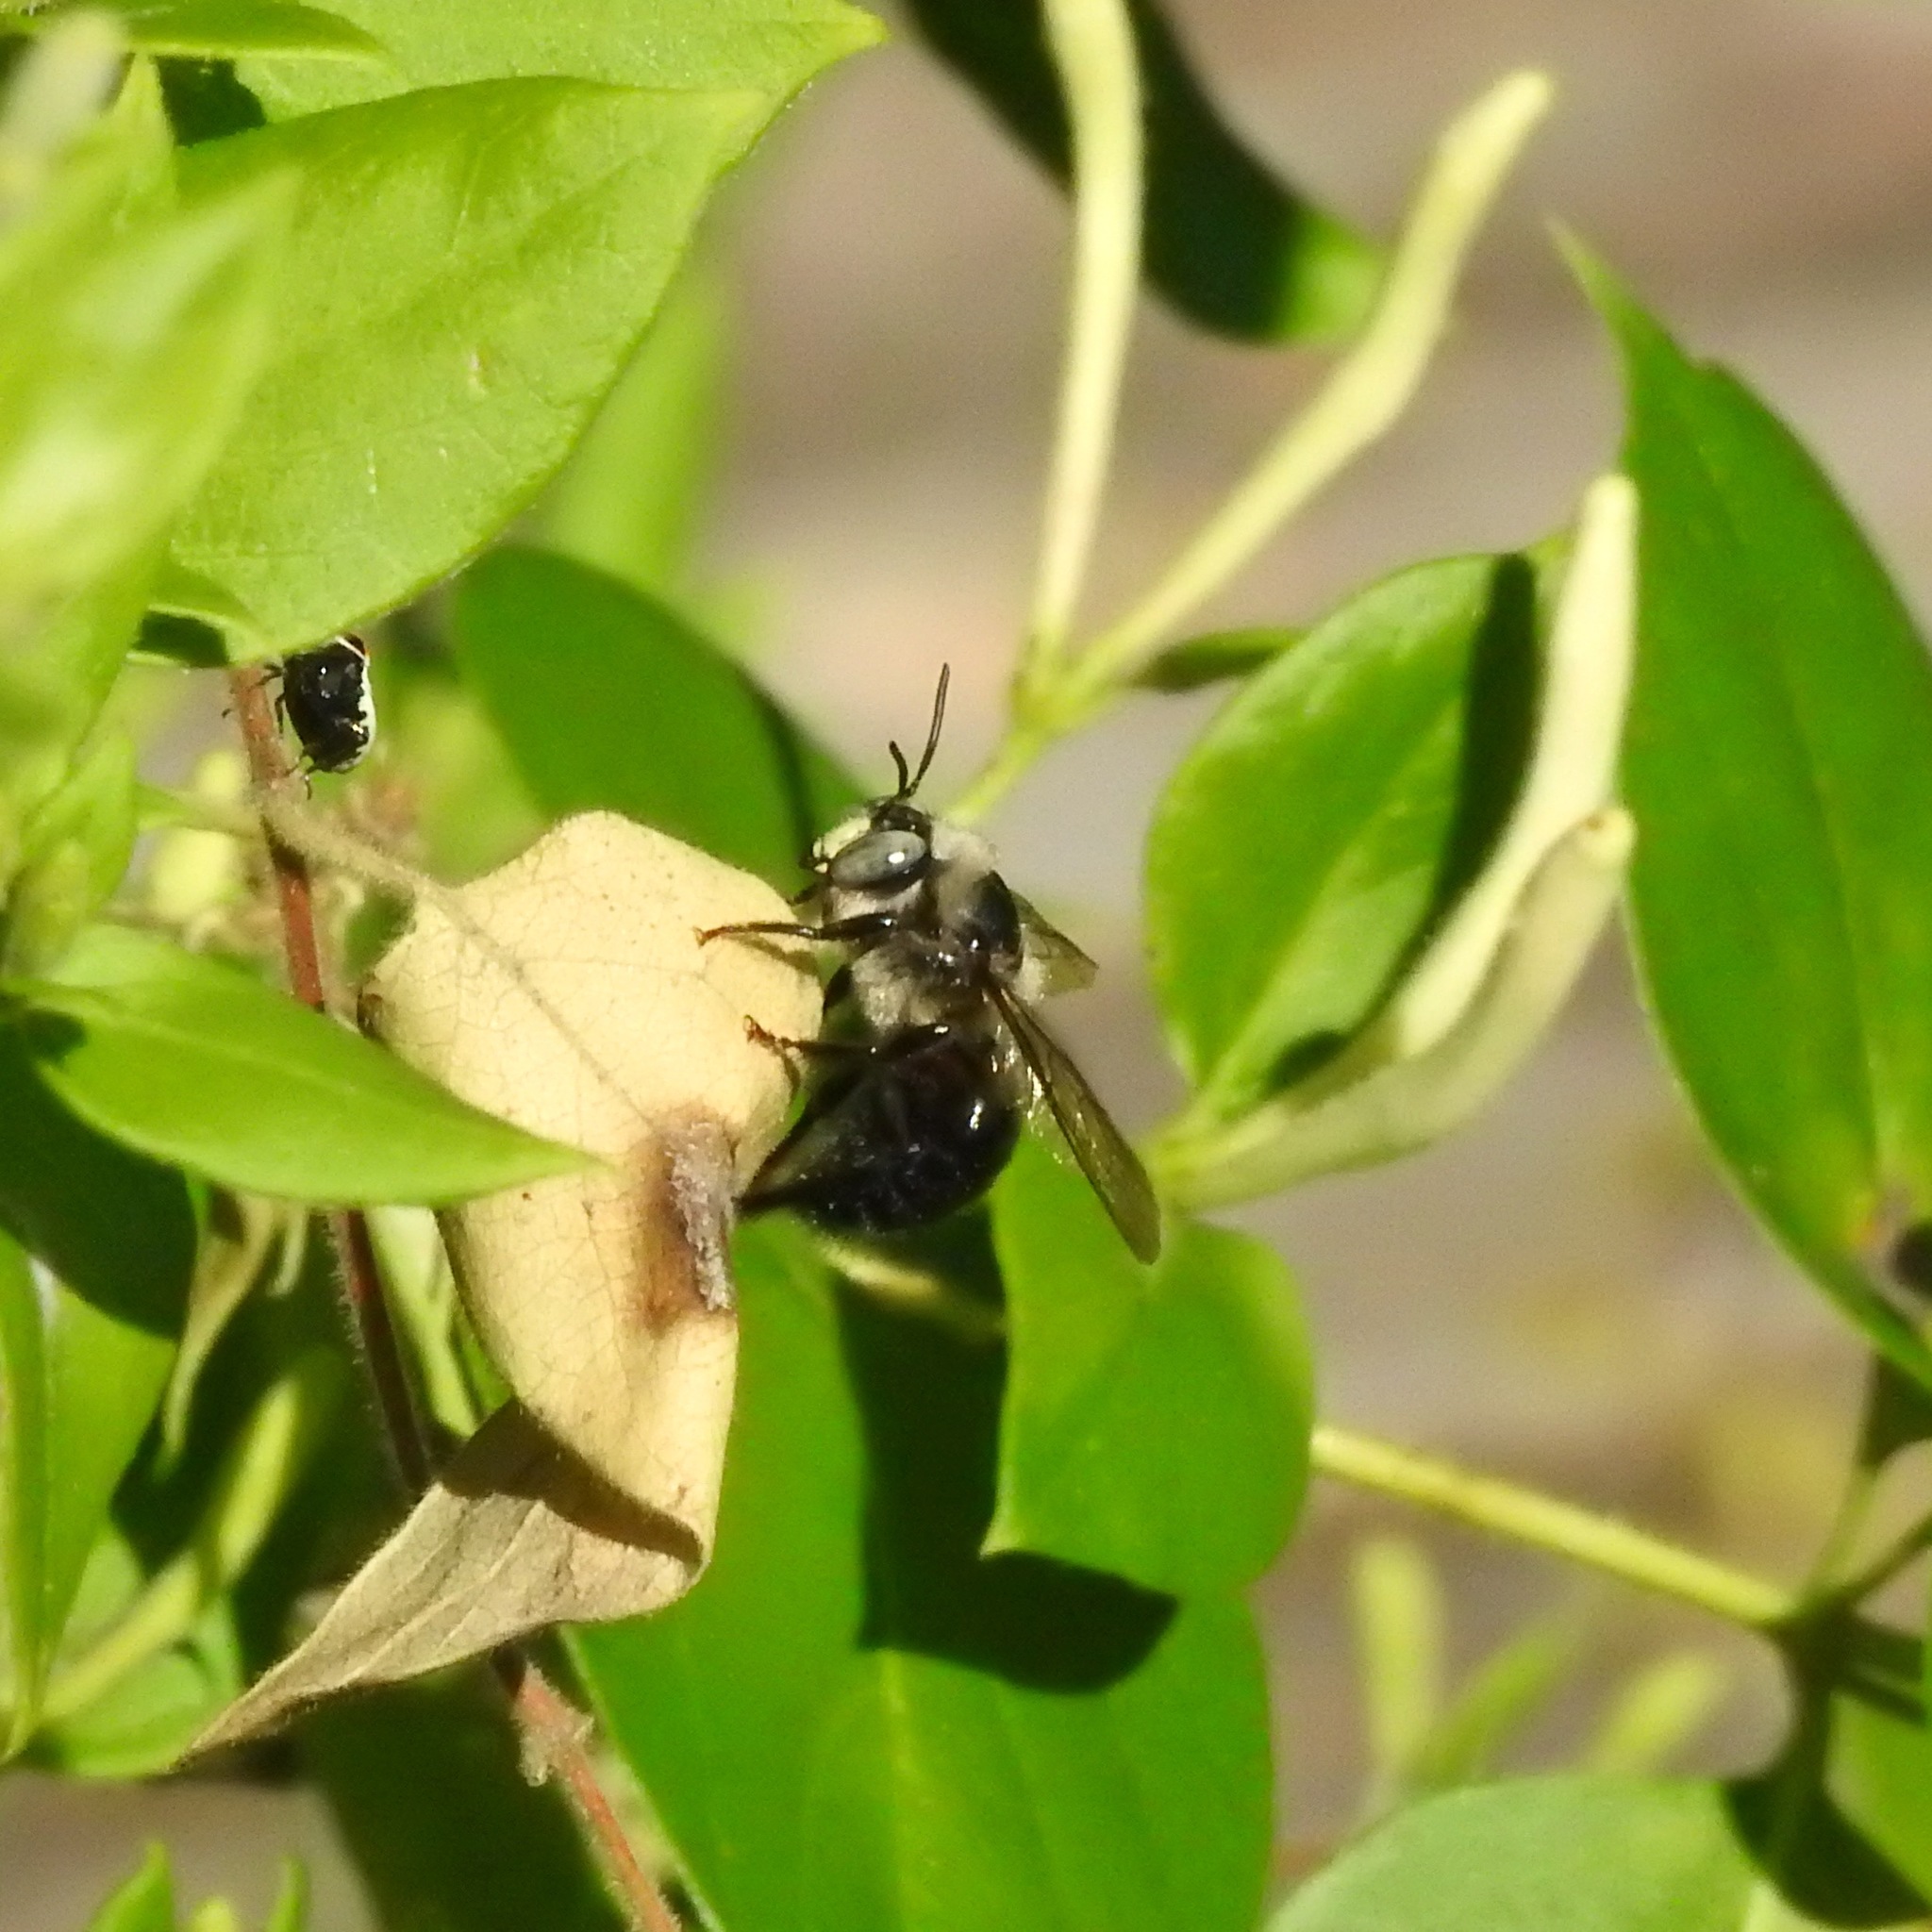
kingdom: Animalia
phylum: Arthropoda
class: Insecta
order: Hymenoptera
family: Apidae
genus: Xylocopa
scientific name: Xylocopa tabaniformis
